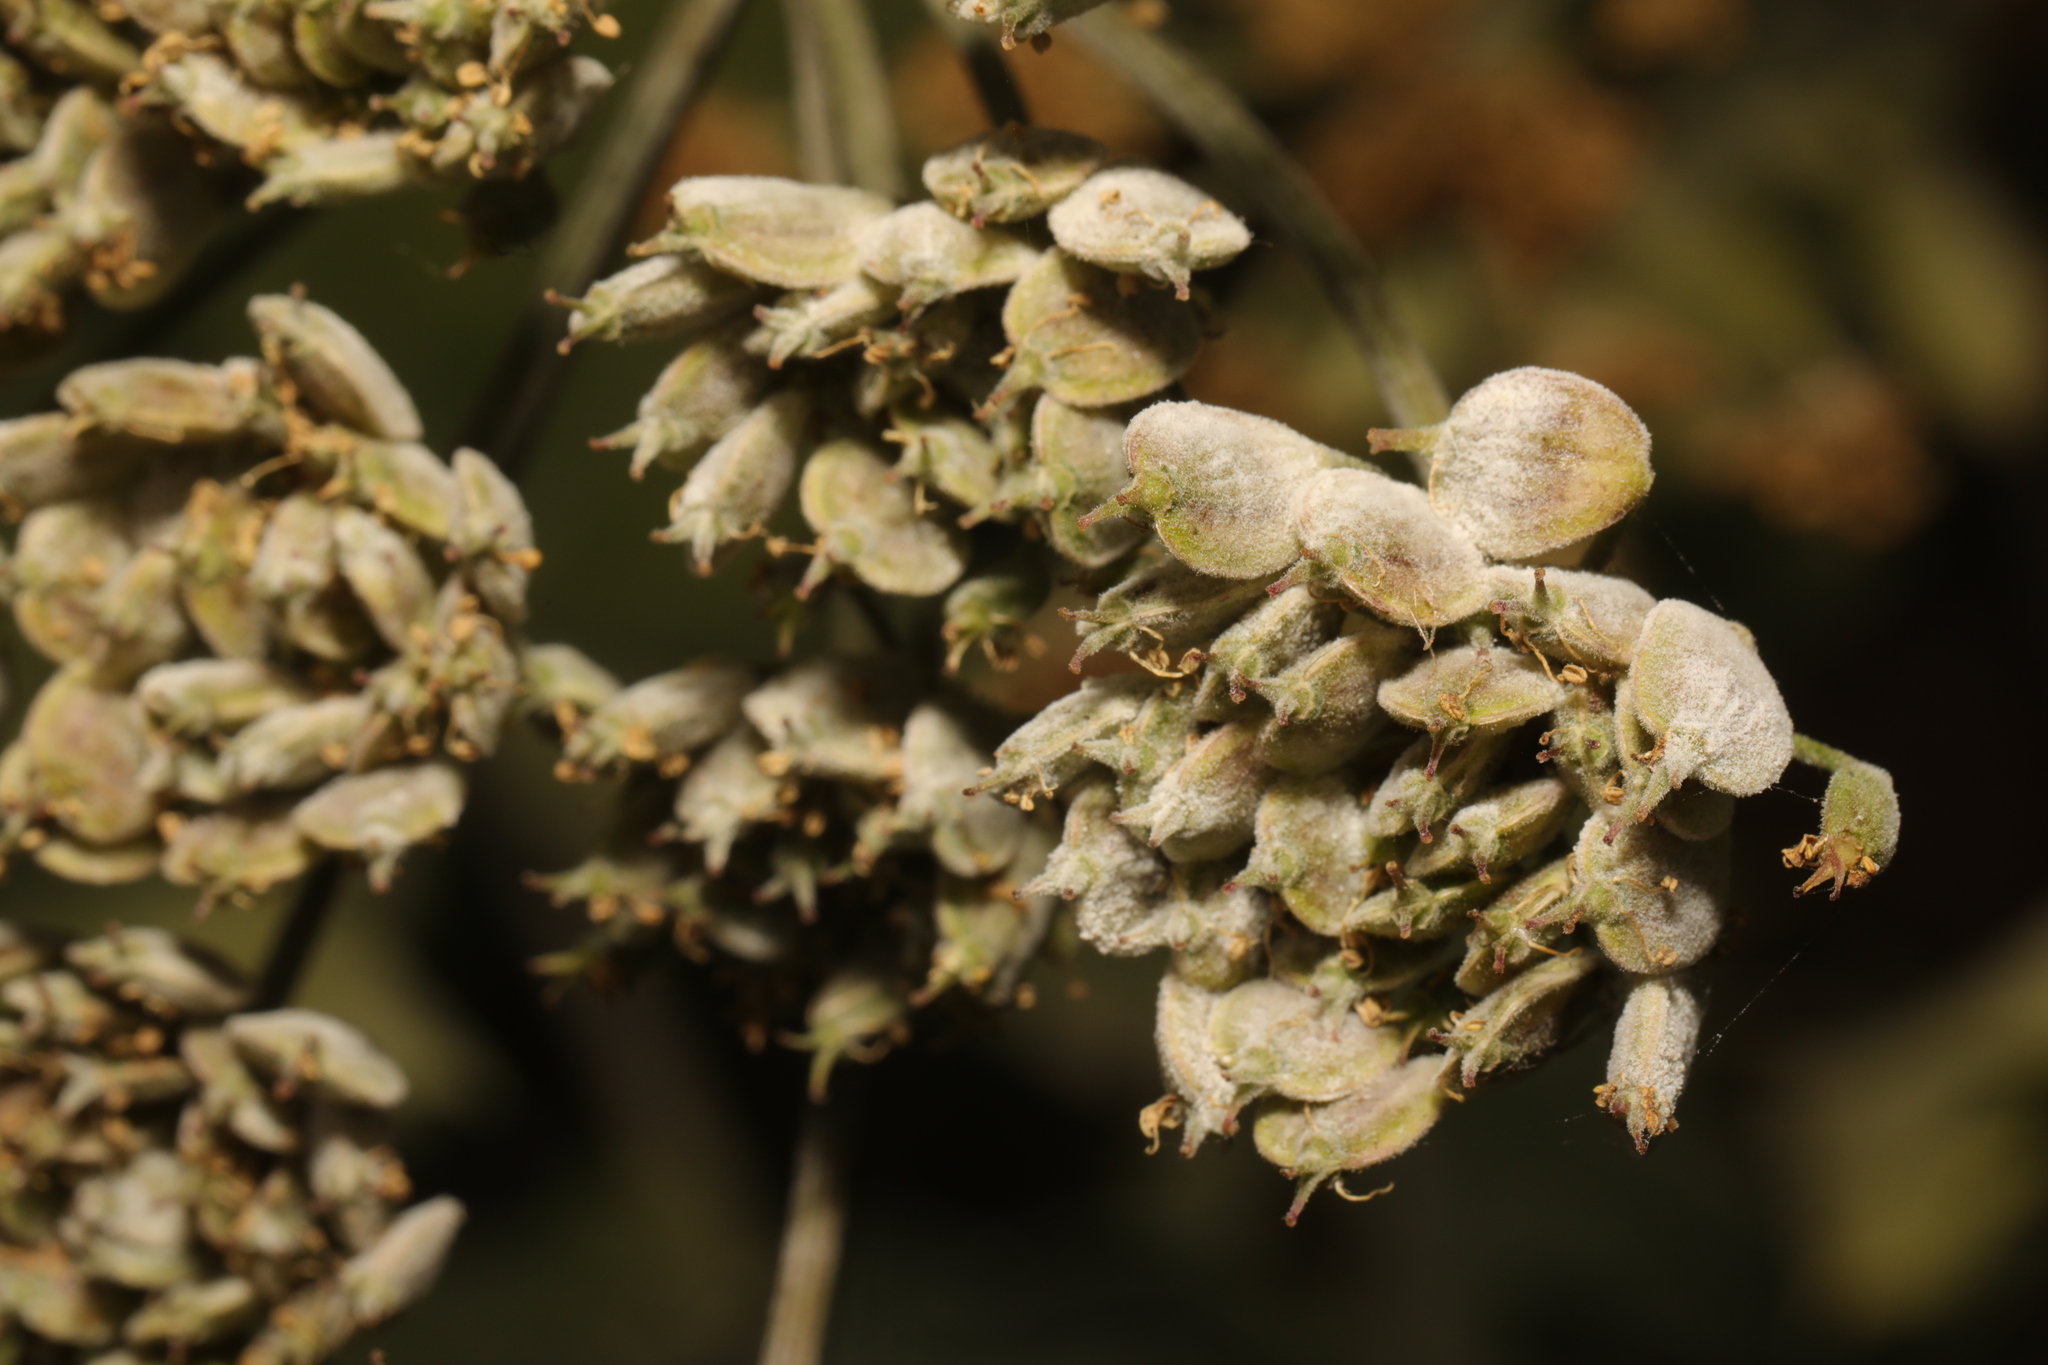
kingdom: Fungi
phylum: Ascomycota
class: Leotiomycetes
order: Helotiales
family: Erysiphaceae
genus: Erysiphe
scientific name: Erysiphe heraclei
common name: Umbellifer mildew
